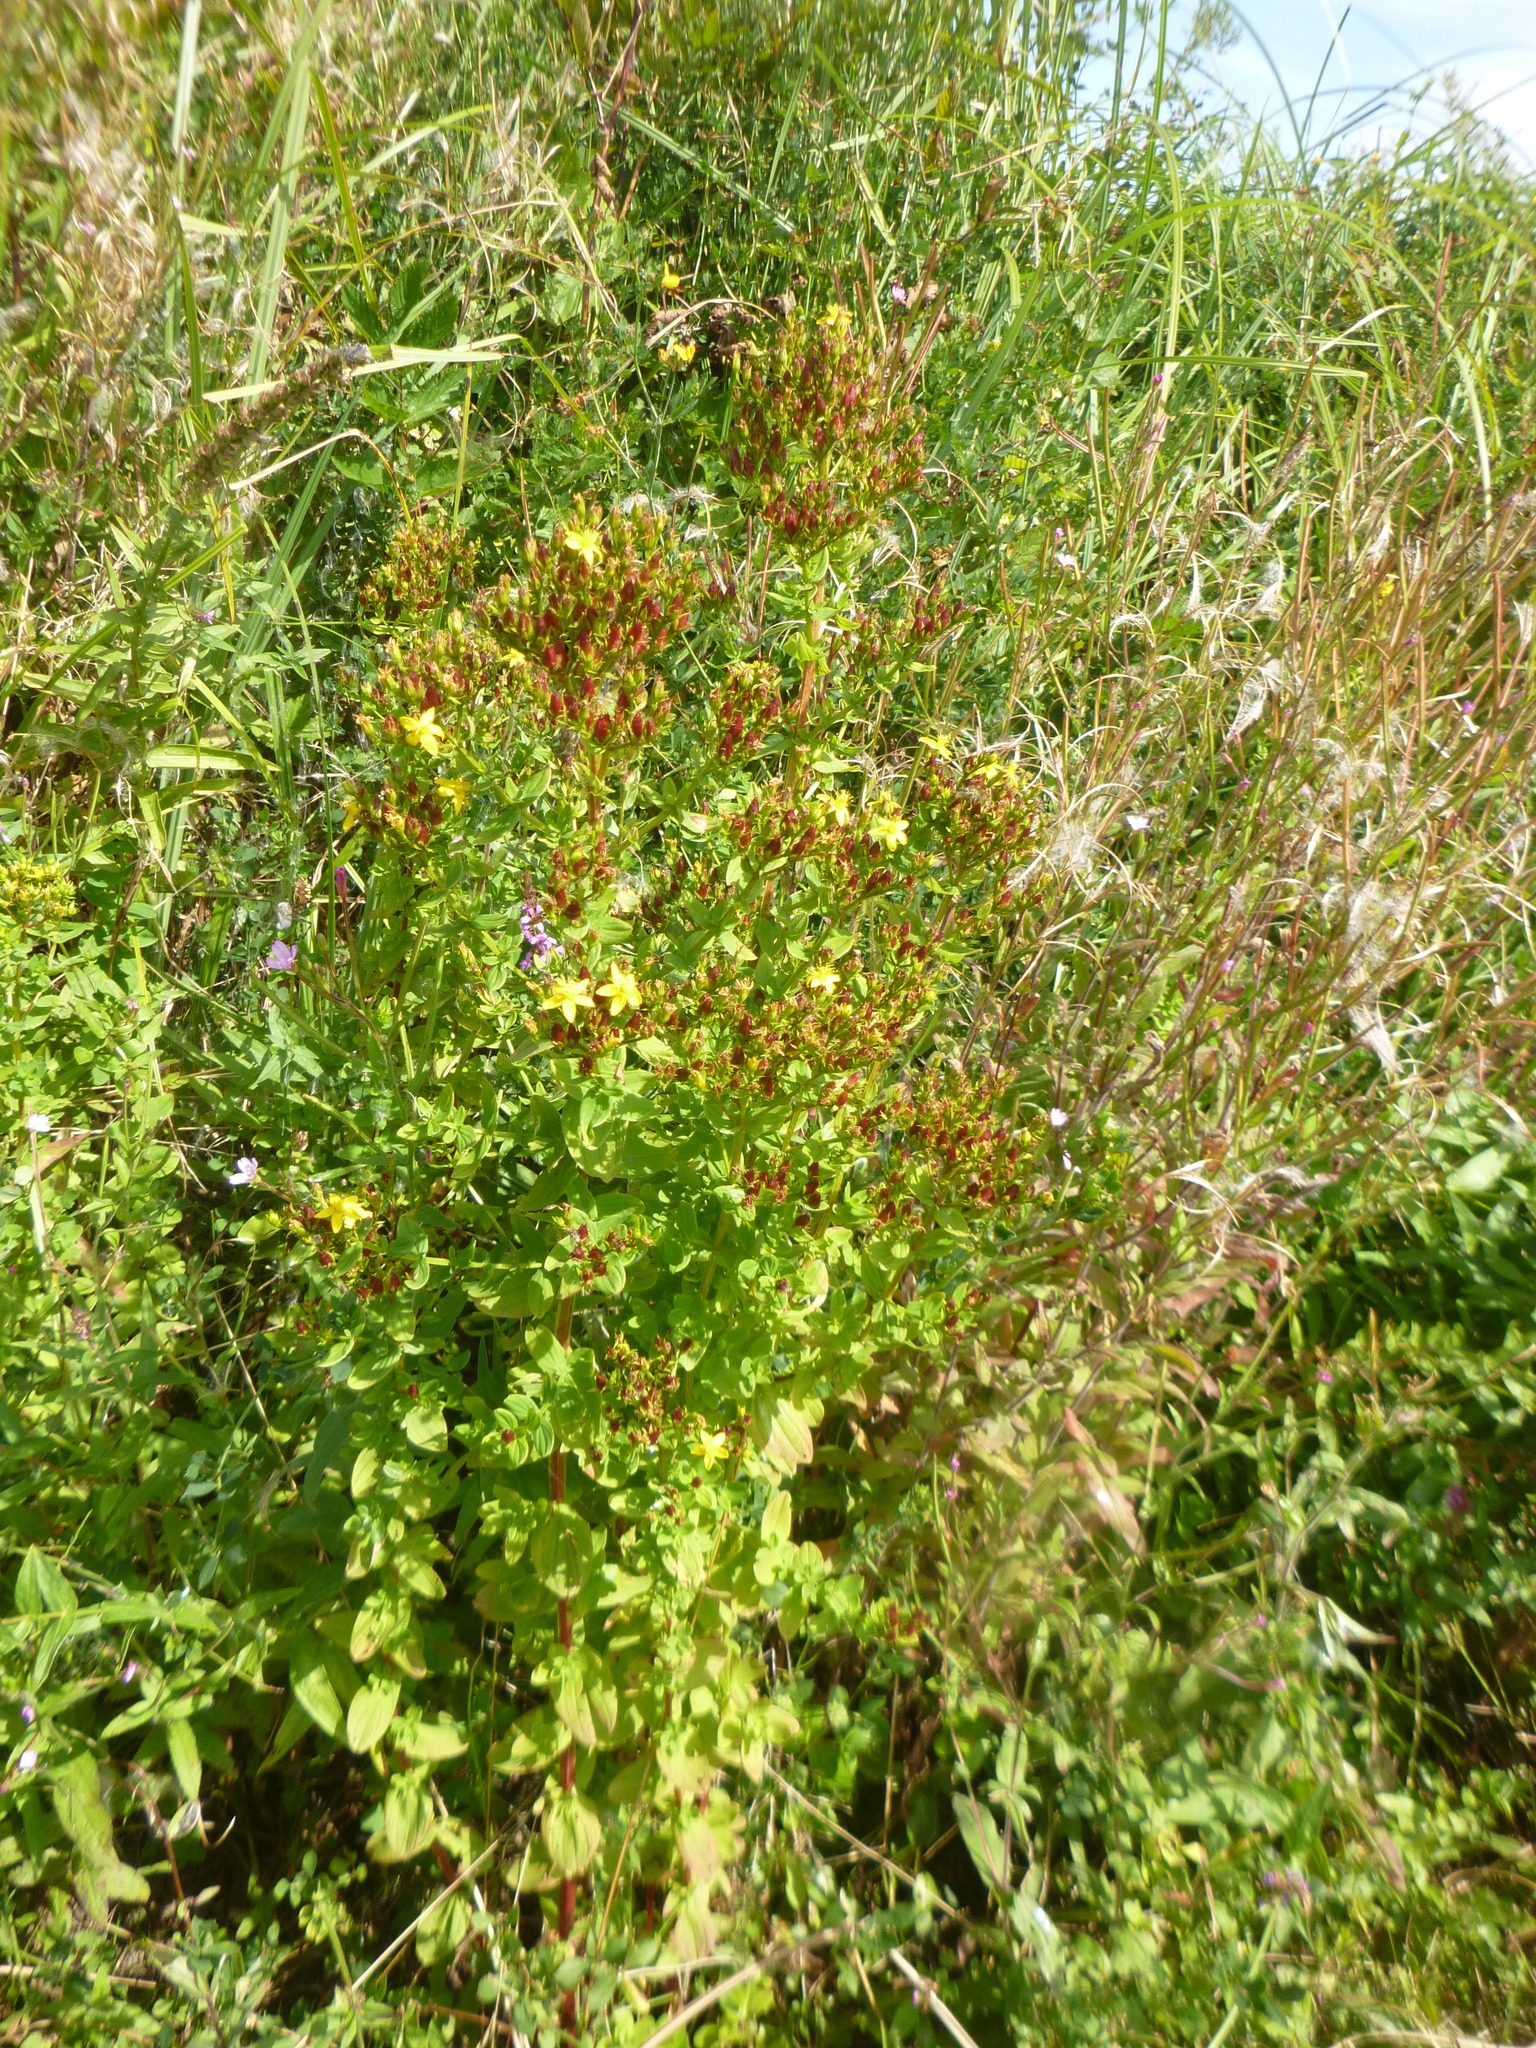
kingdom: Plantae
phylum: Tracheophyta
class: Magnoliopsida
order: Malpighiales
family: Hypericaceae
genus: Hypericum
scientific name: Hypericum tetrapterum
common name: Square-stalked st. john's-wort
